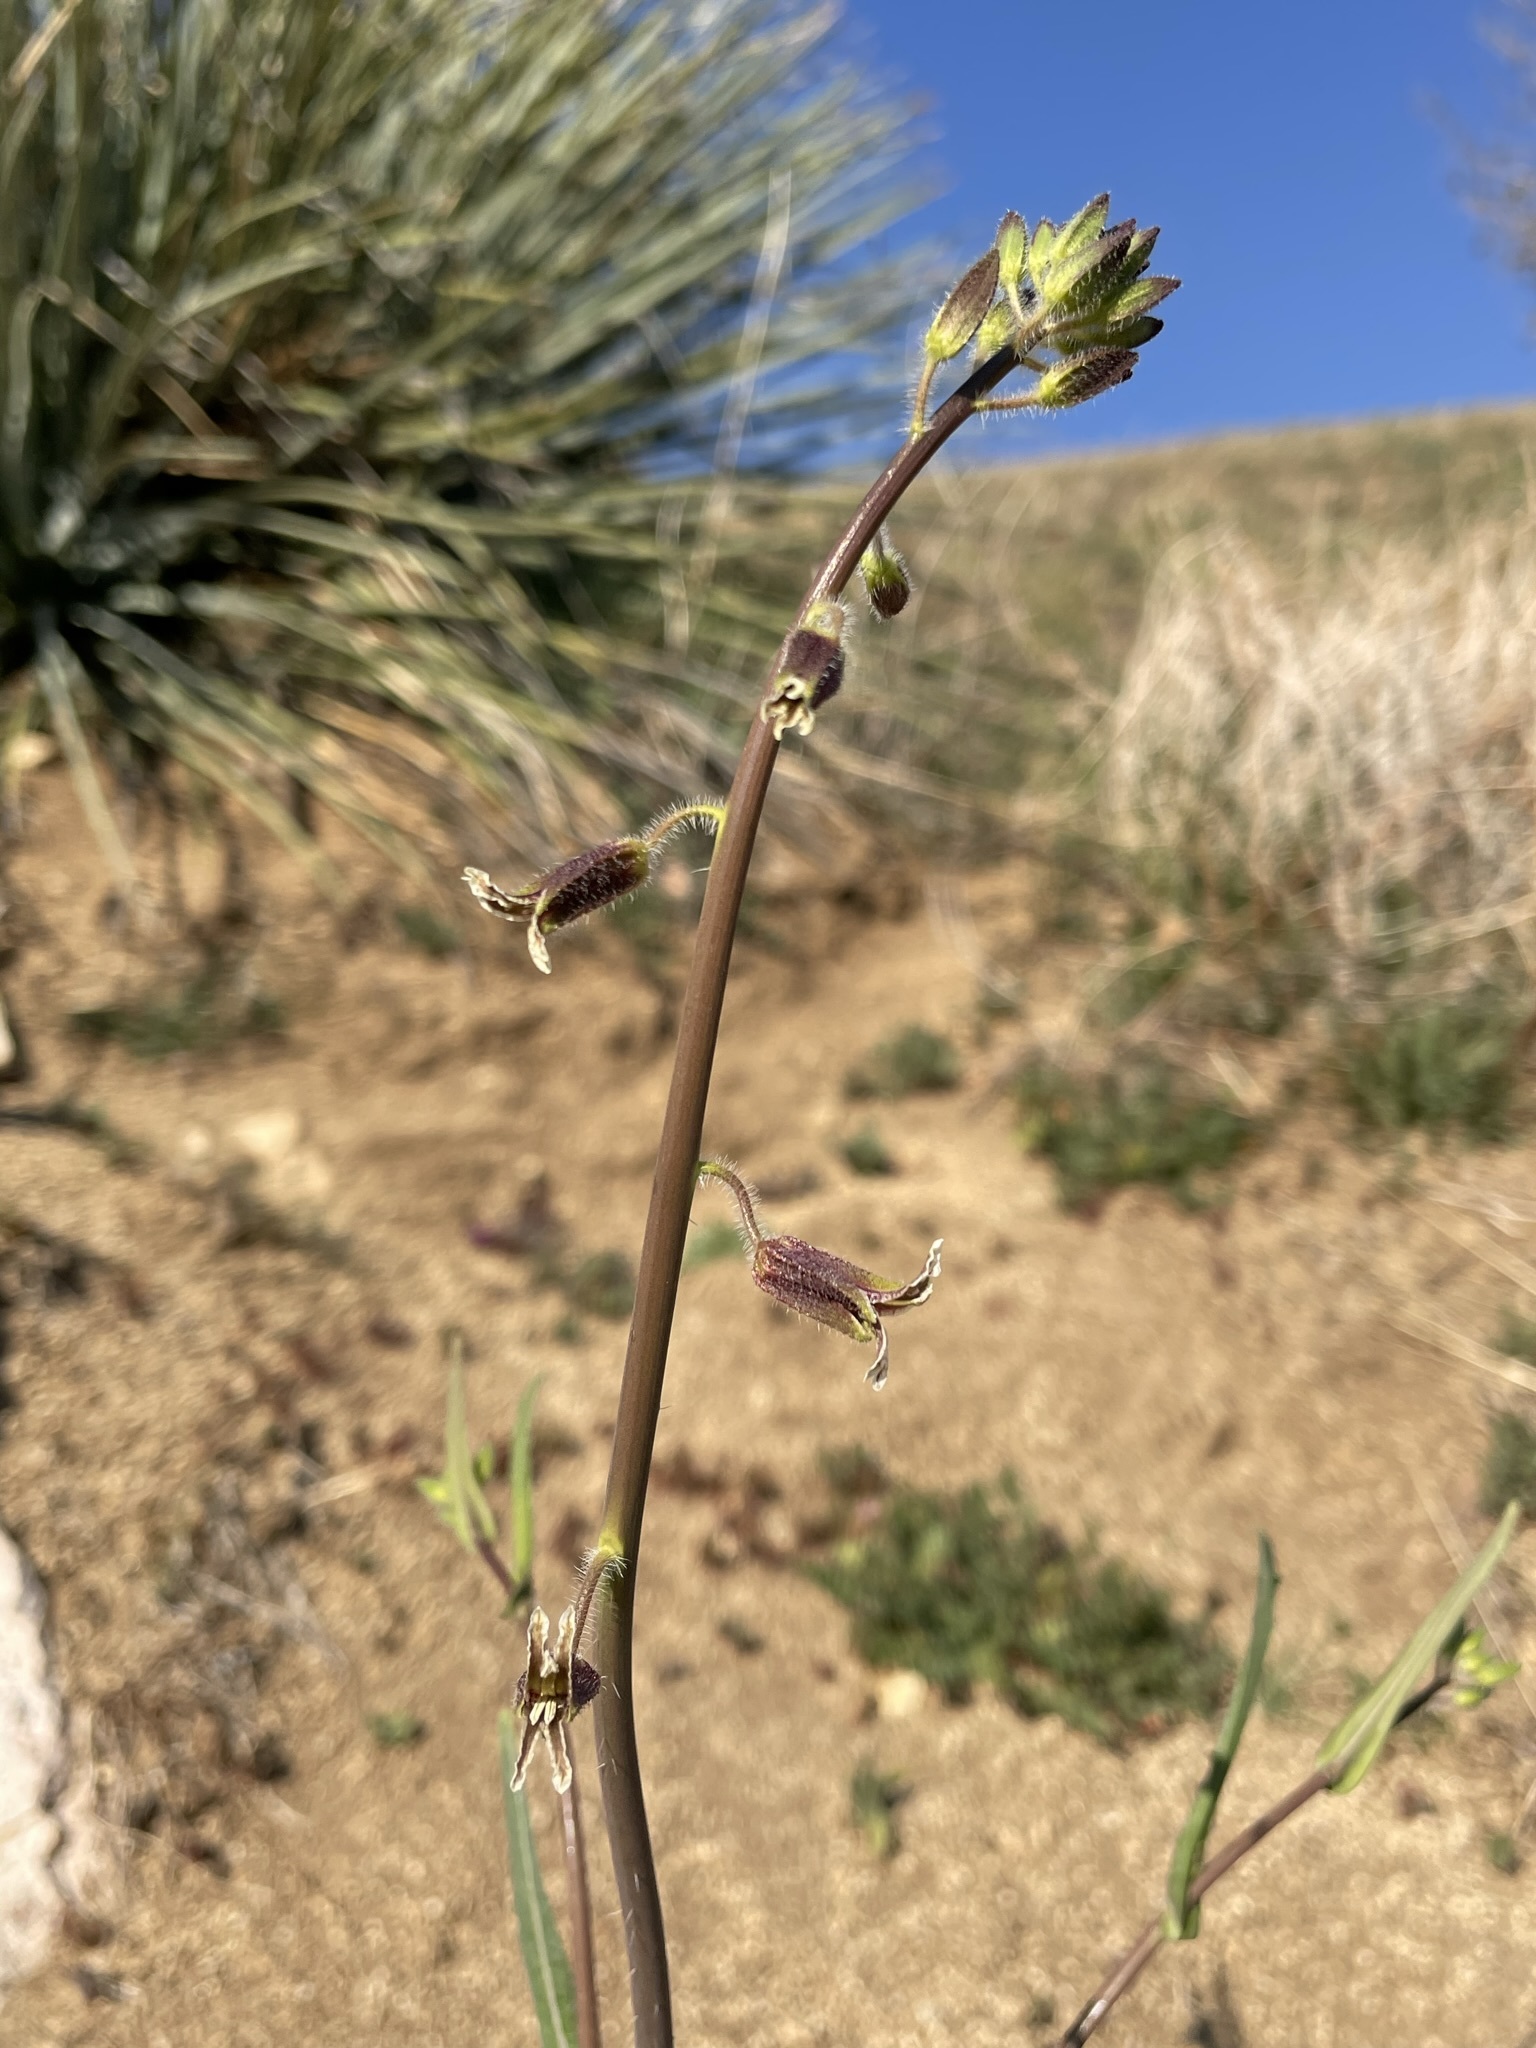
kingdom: Plantae
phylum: Tracheophyta
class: Magnoliopsida
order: Brassicales
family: Brassicaceae
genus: Streptanthus
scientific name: Streptanthus coulteri
